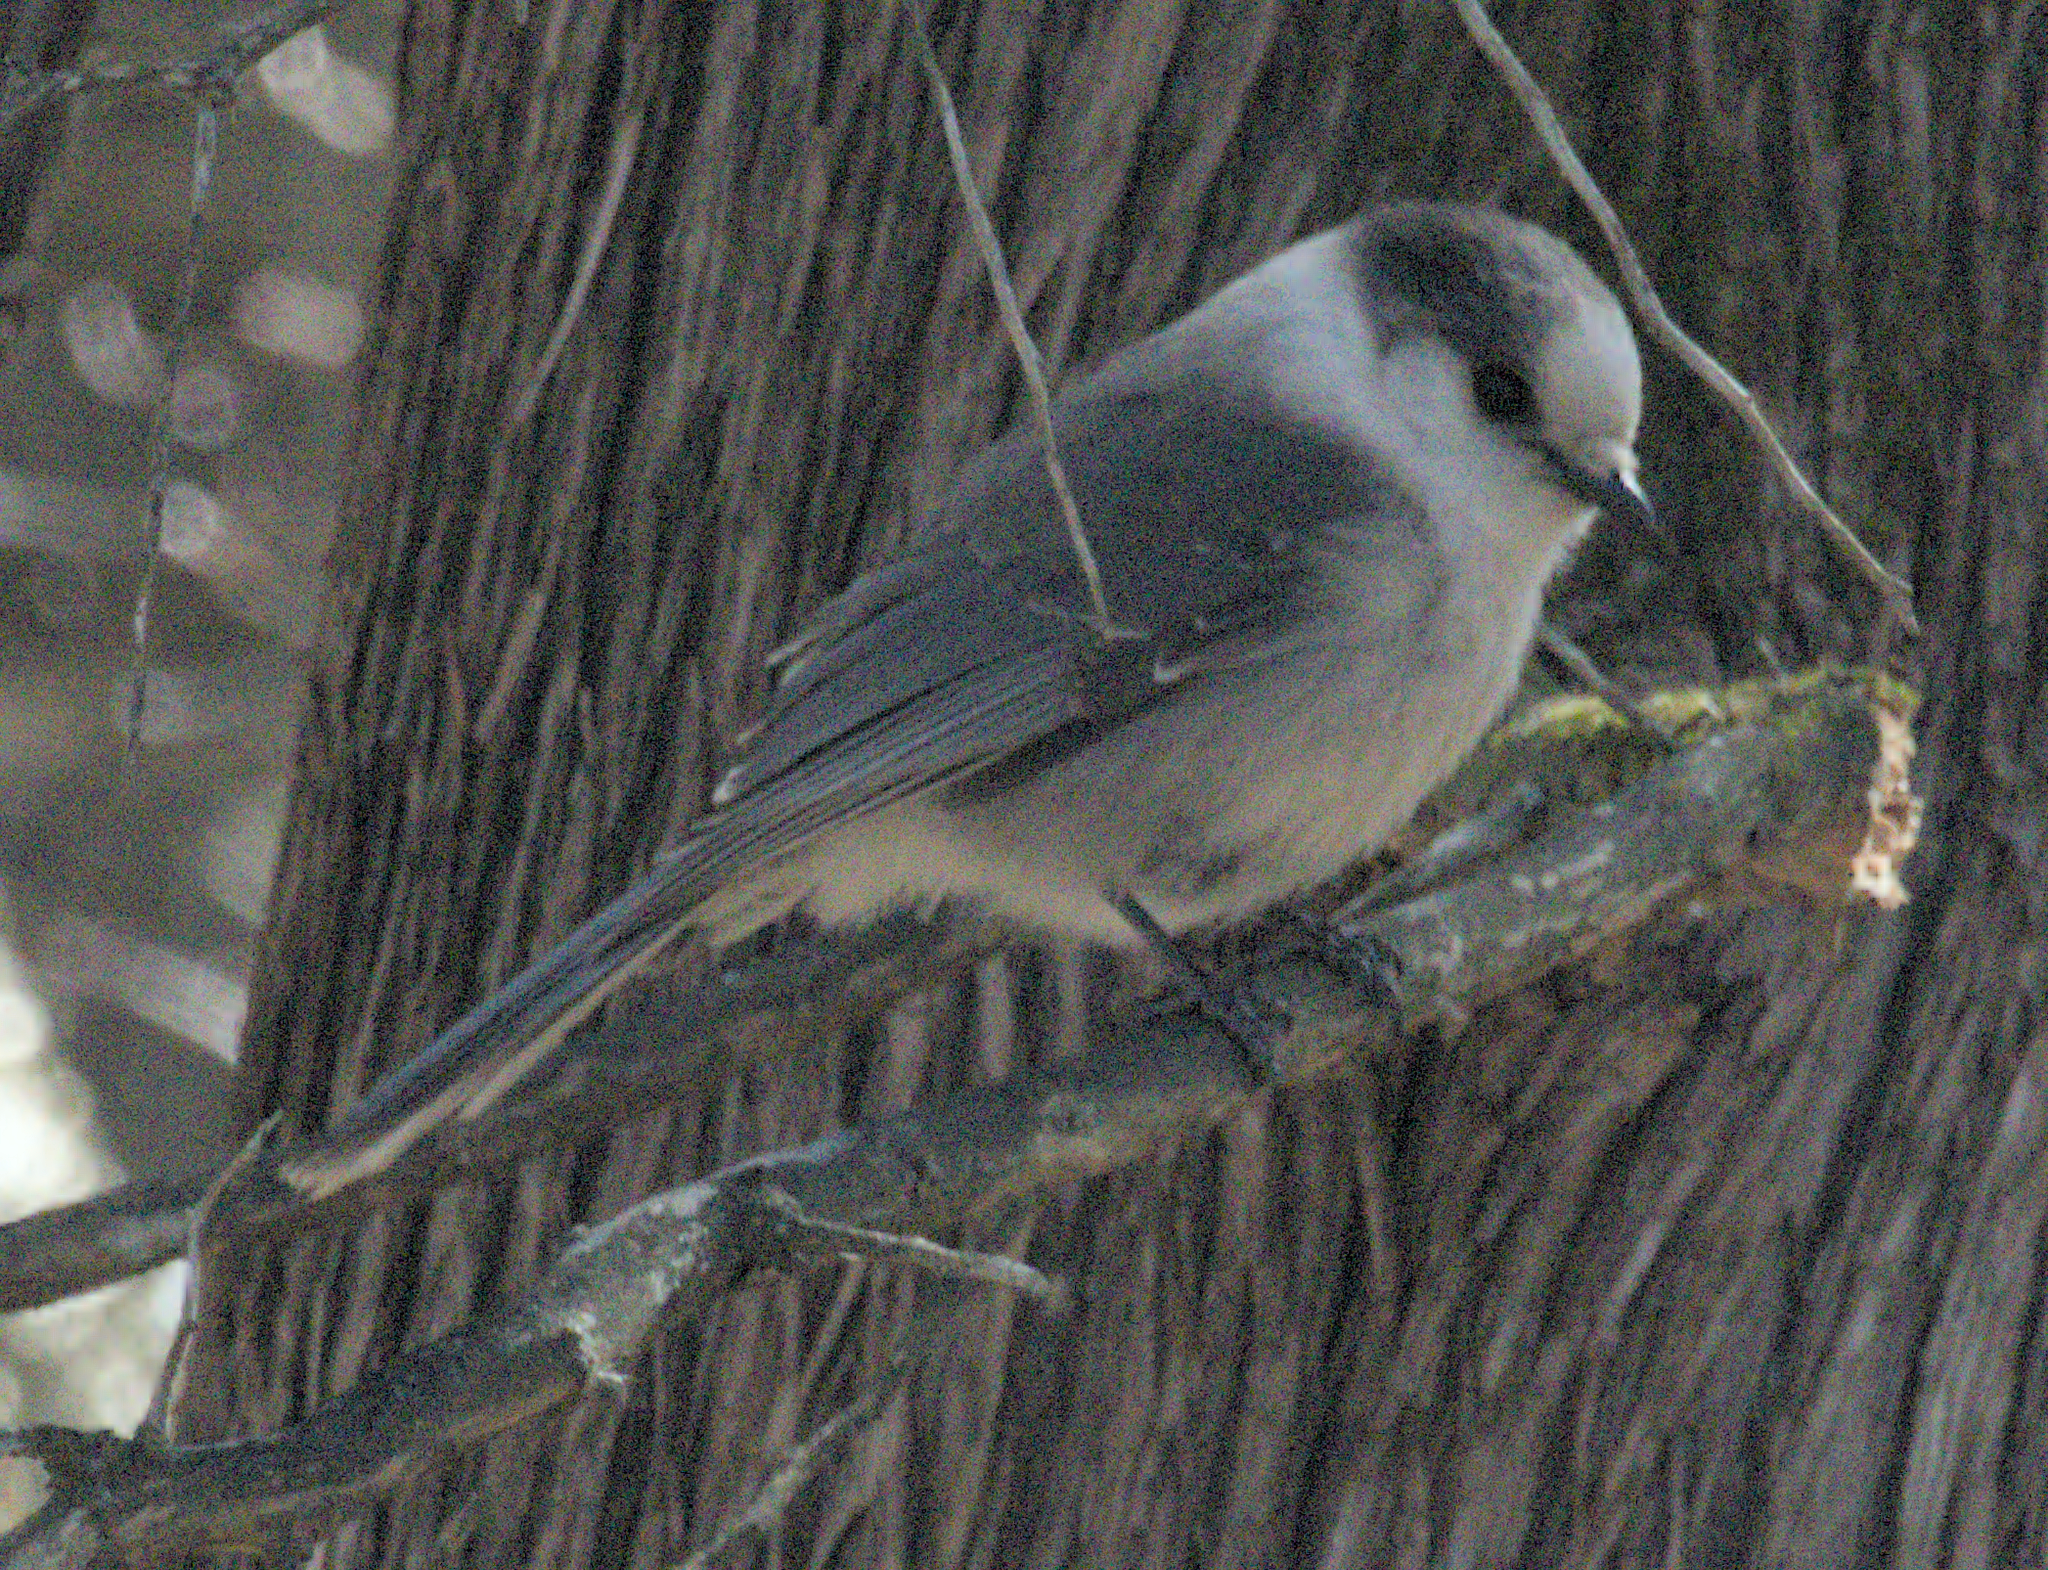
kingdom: Animalia
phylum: Chordata
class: Aves
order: Passeriformes
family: Corvidae
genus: Perisoreus
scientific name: Perisoreus canadensis
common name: Gray jay
